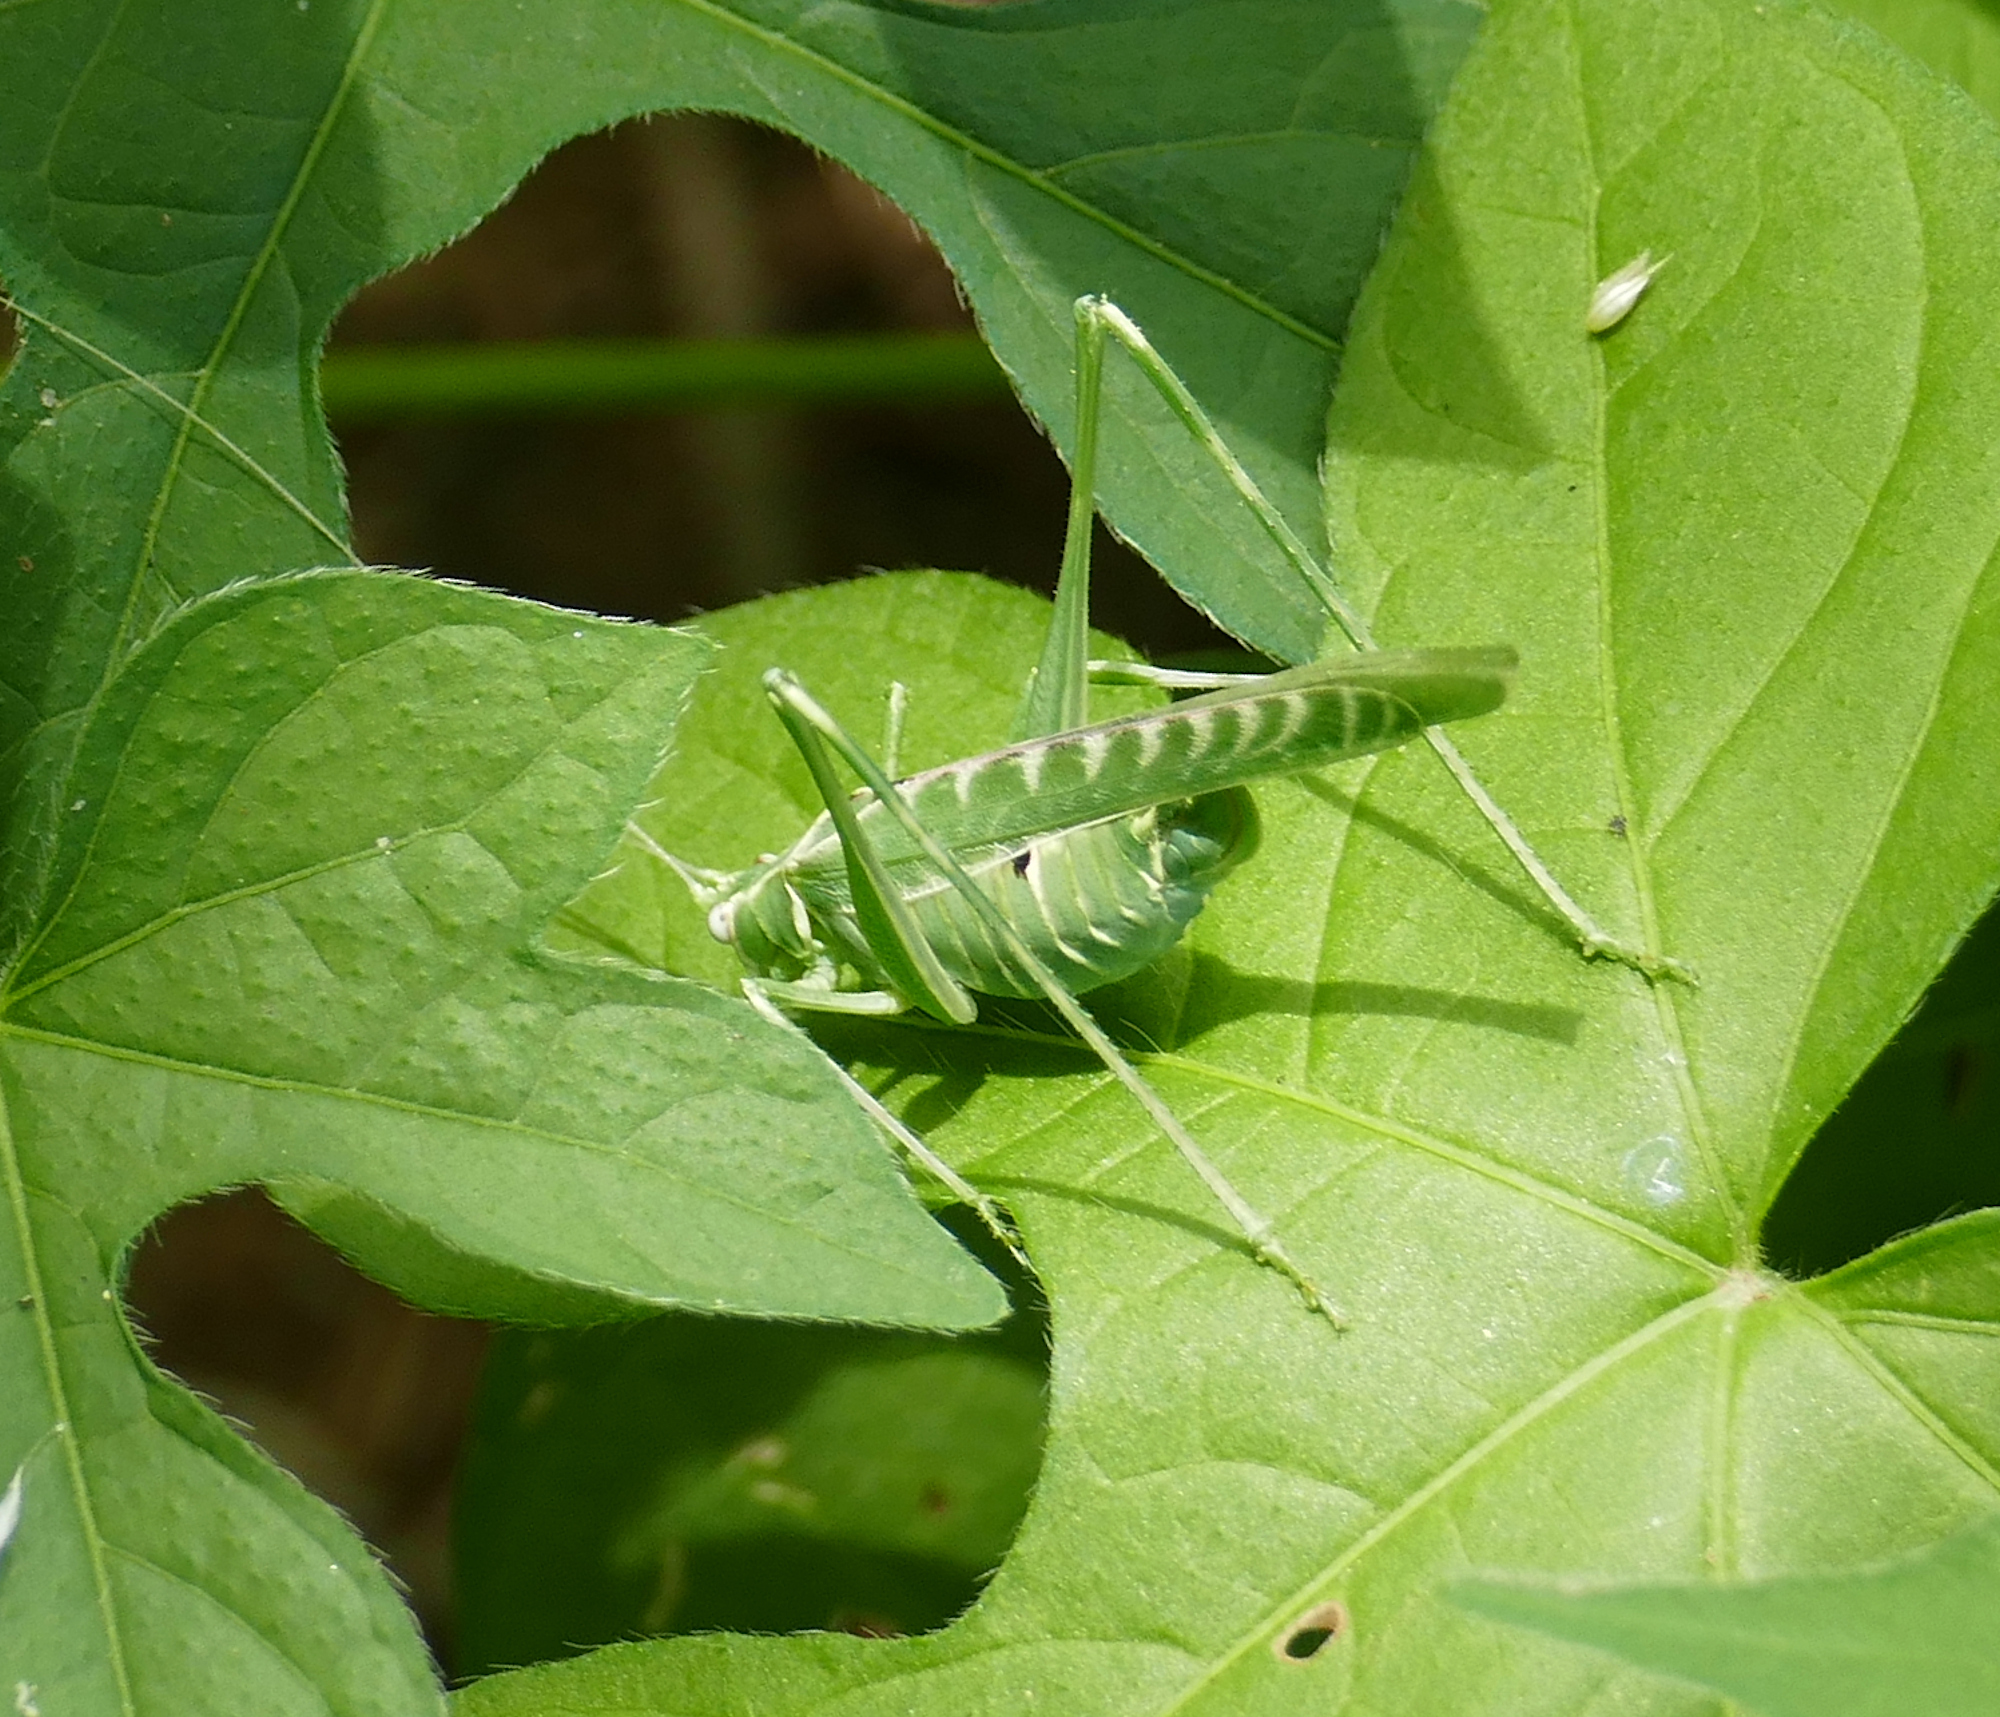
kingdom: Animalia
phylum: Arthropoda
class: Insecta
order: Orthoptera
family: Tettigoniidae
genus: Insara
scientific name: Insara elegans
